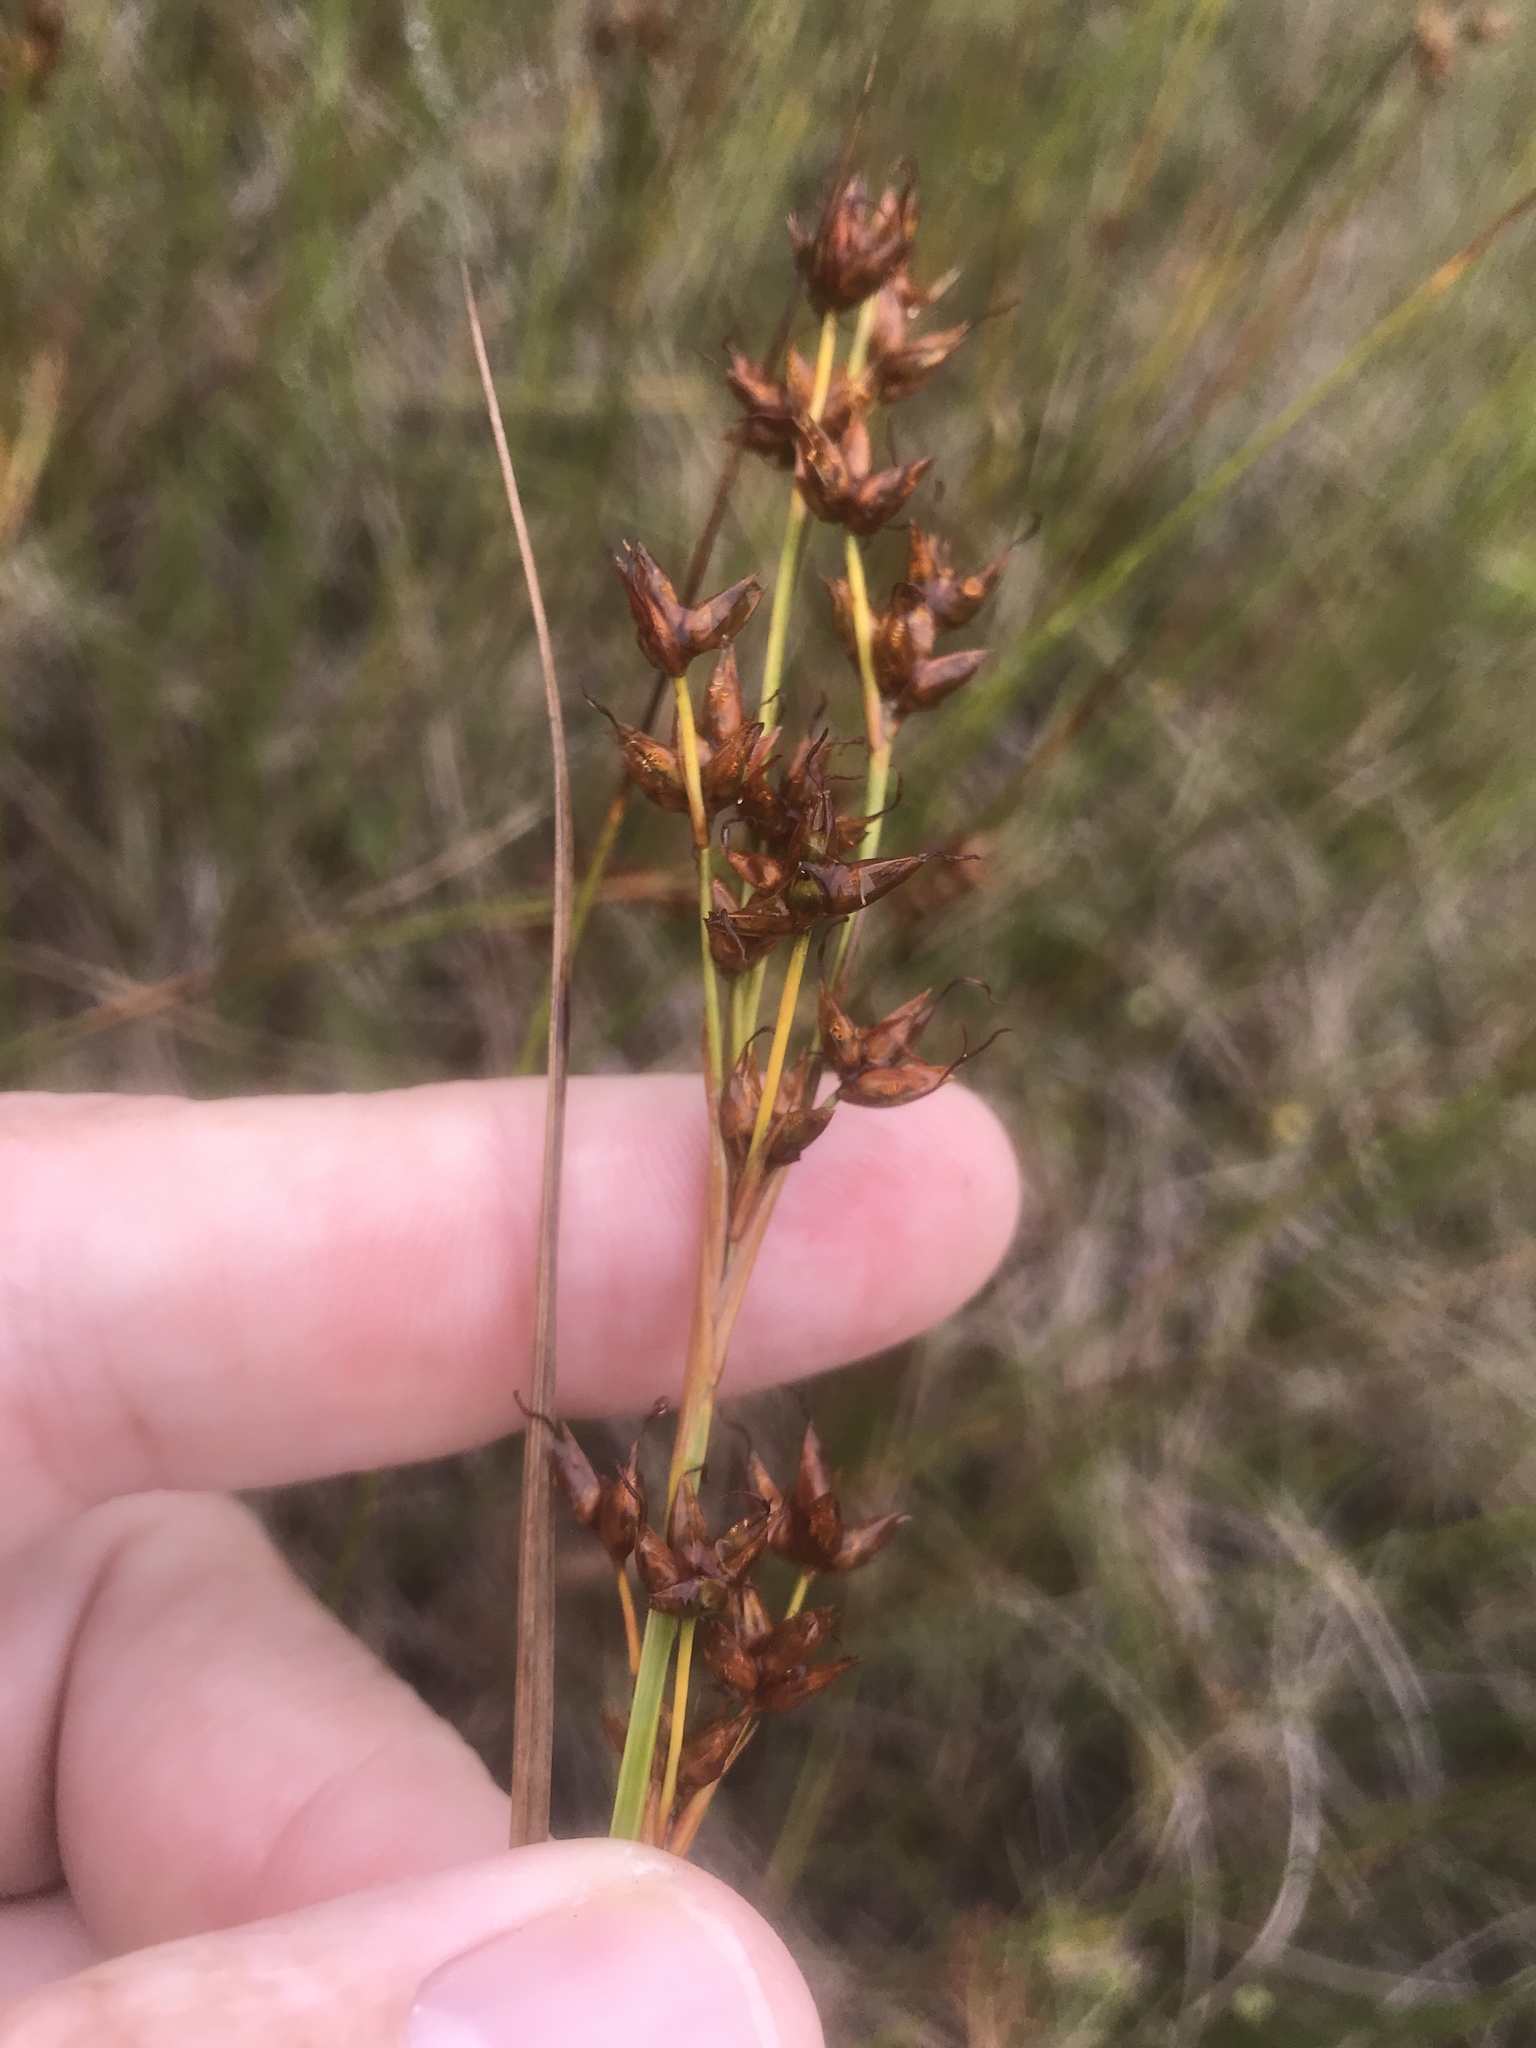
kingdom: Plantae
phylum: Tracheophyta
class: Liliopsida
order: Poales
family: Cyperaceae
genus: Cladium
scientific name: Cladium mariscoides
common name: Smooth sawgrass
